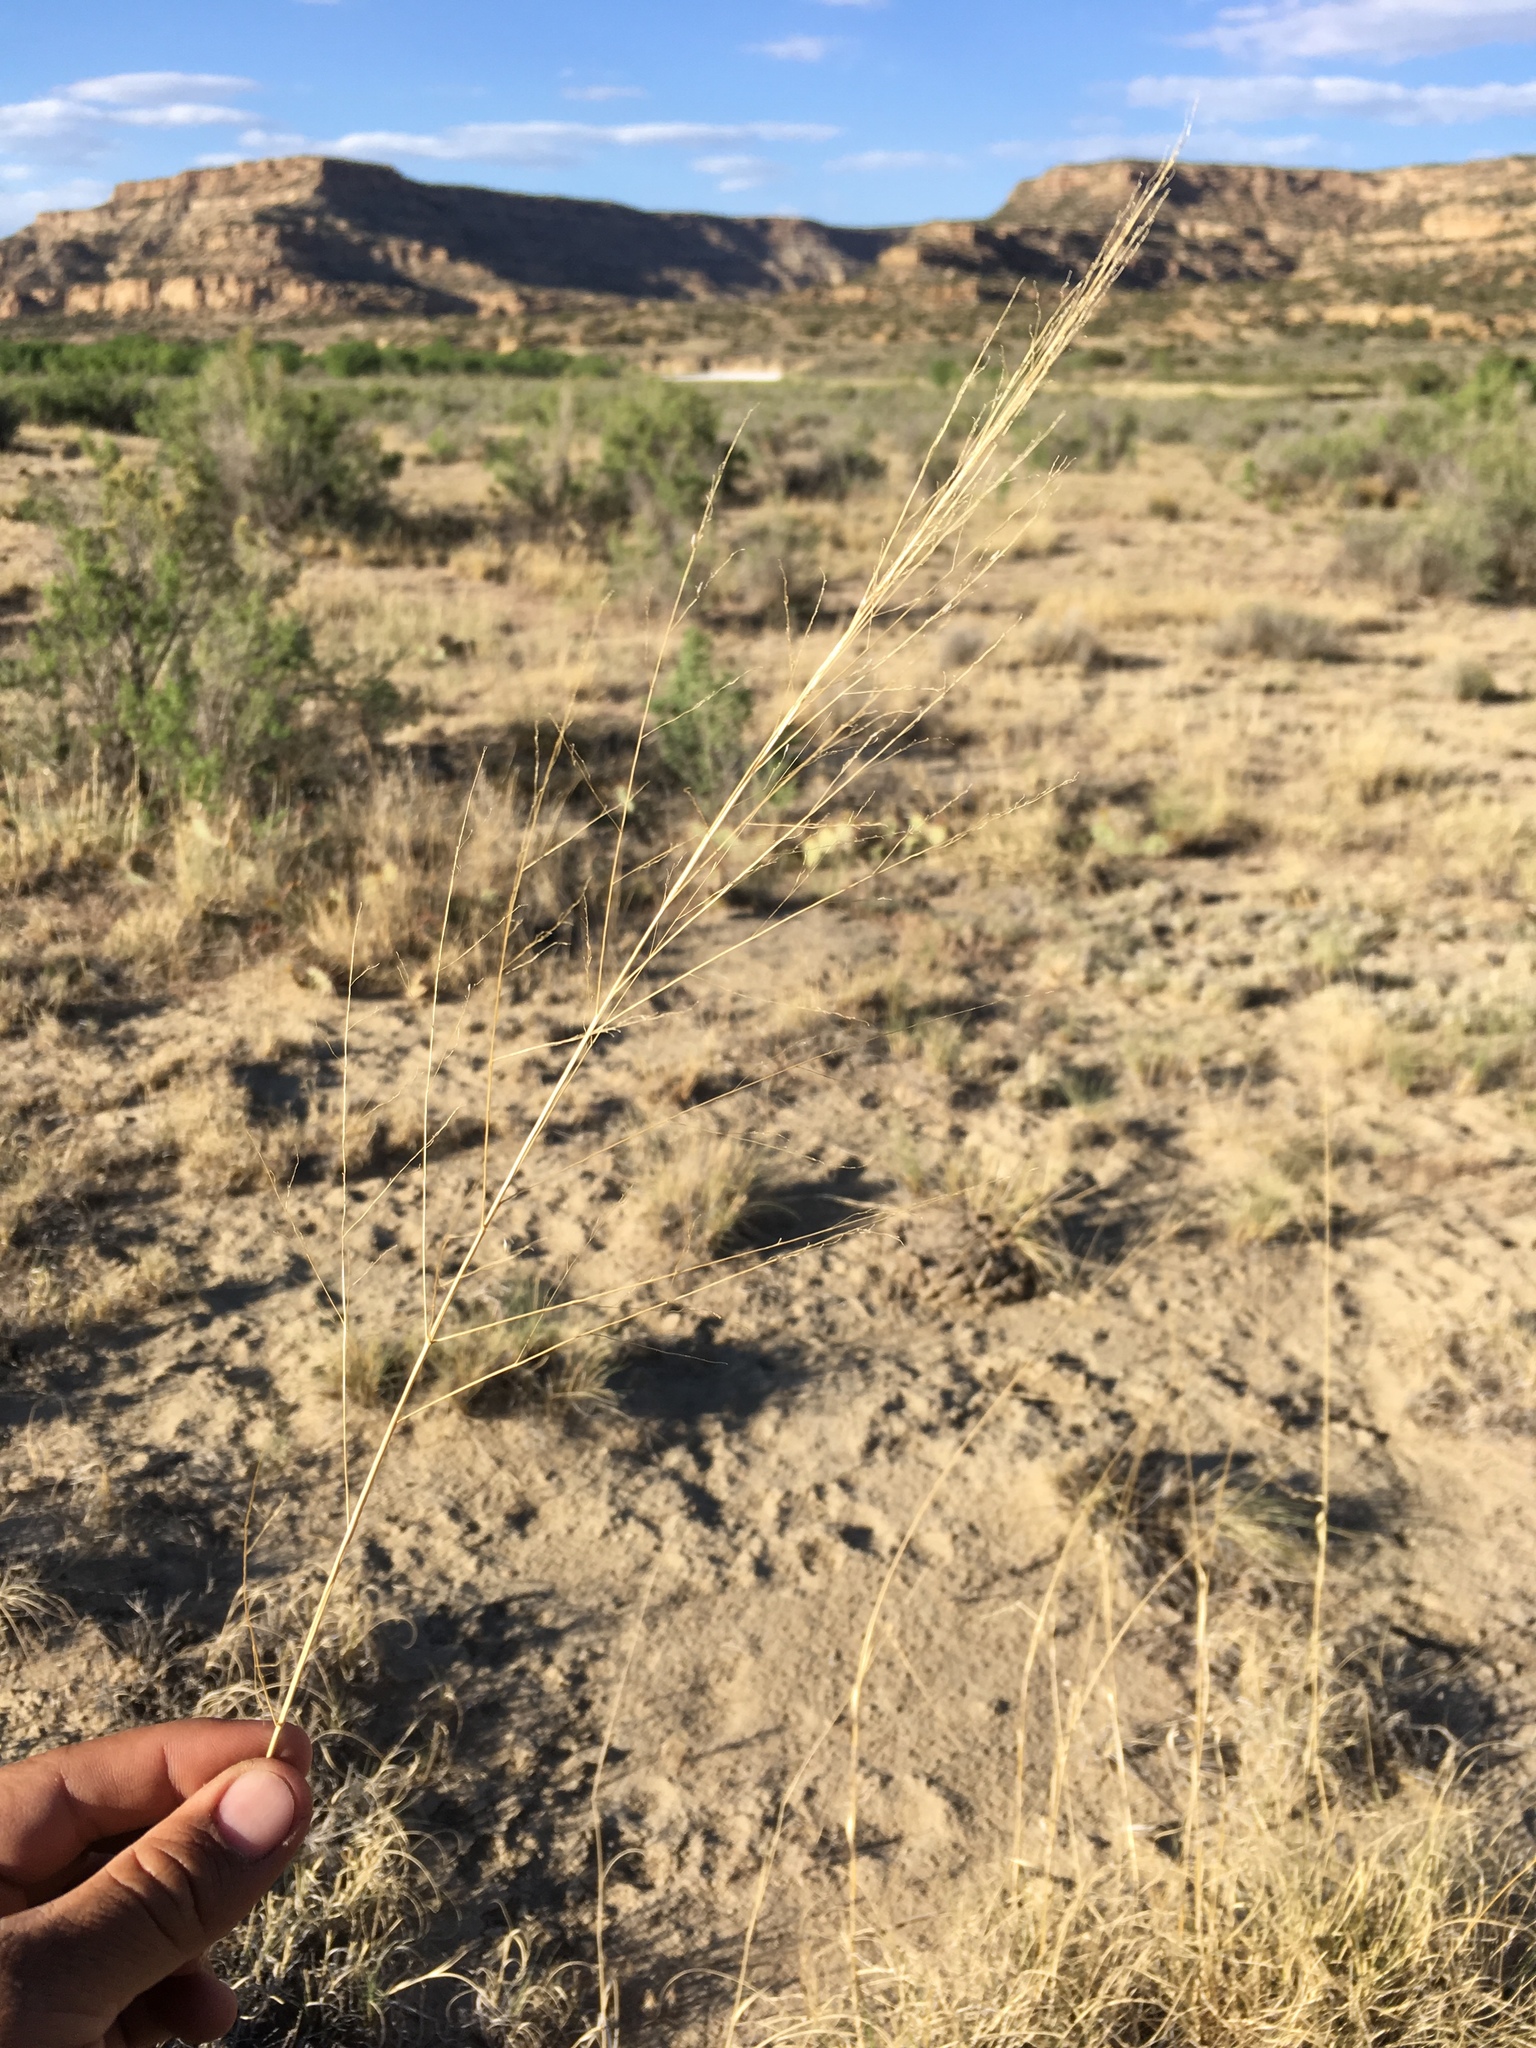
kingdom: Plantae
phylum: Tracheophyta
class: Liliopsida
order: Poales
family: Poaceae
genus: Sporobolus
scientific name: Sporobolus airoides
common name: Alkali sacaton
